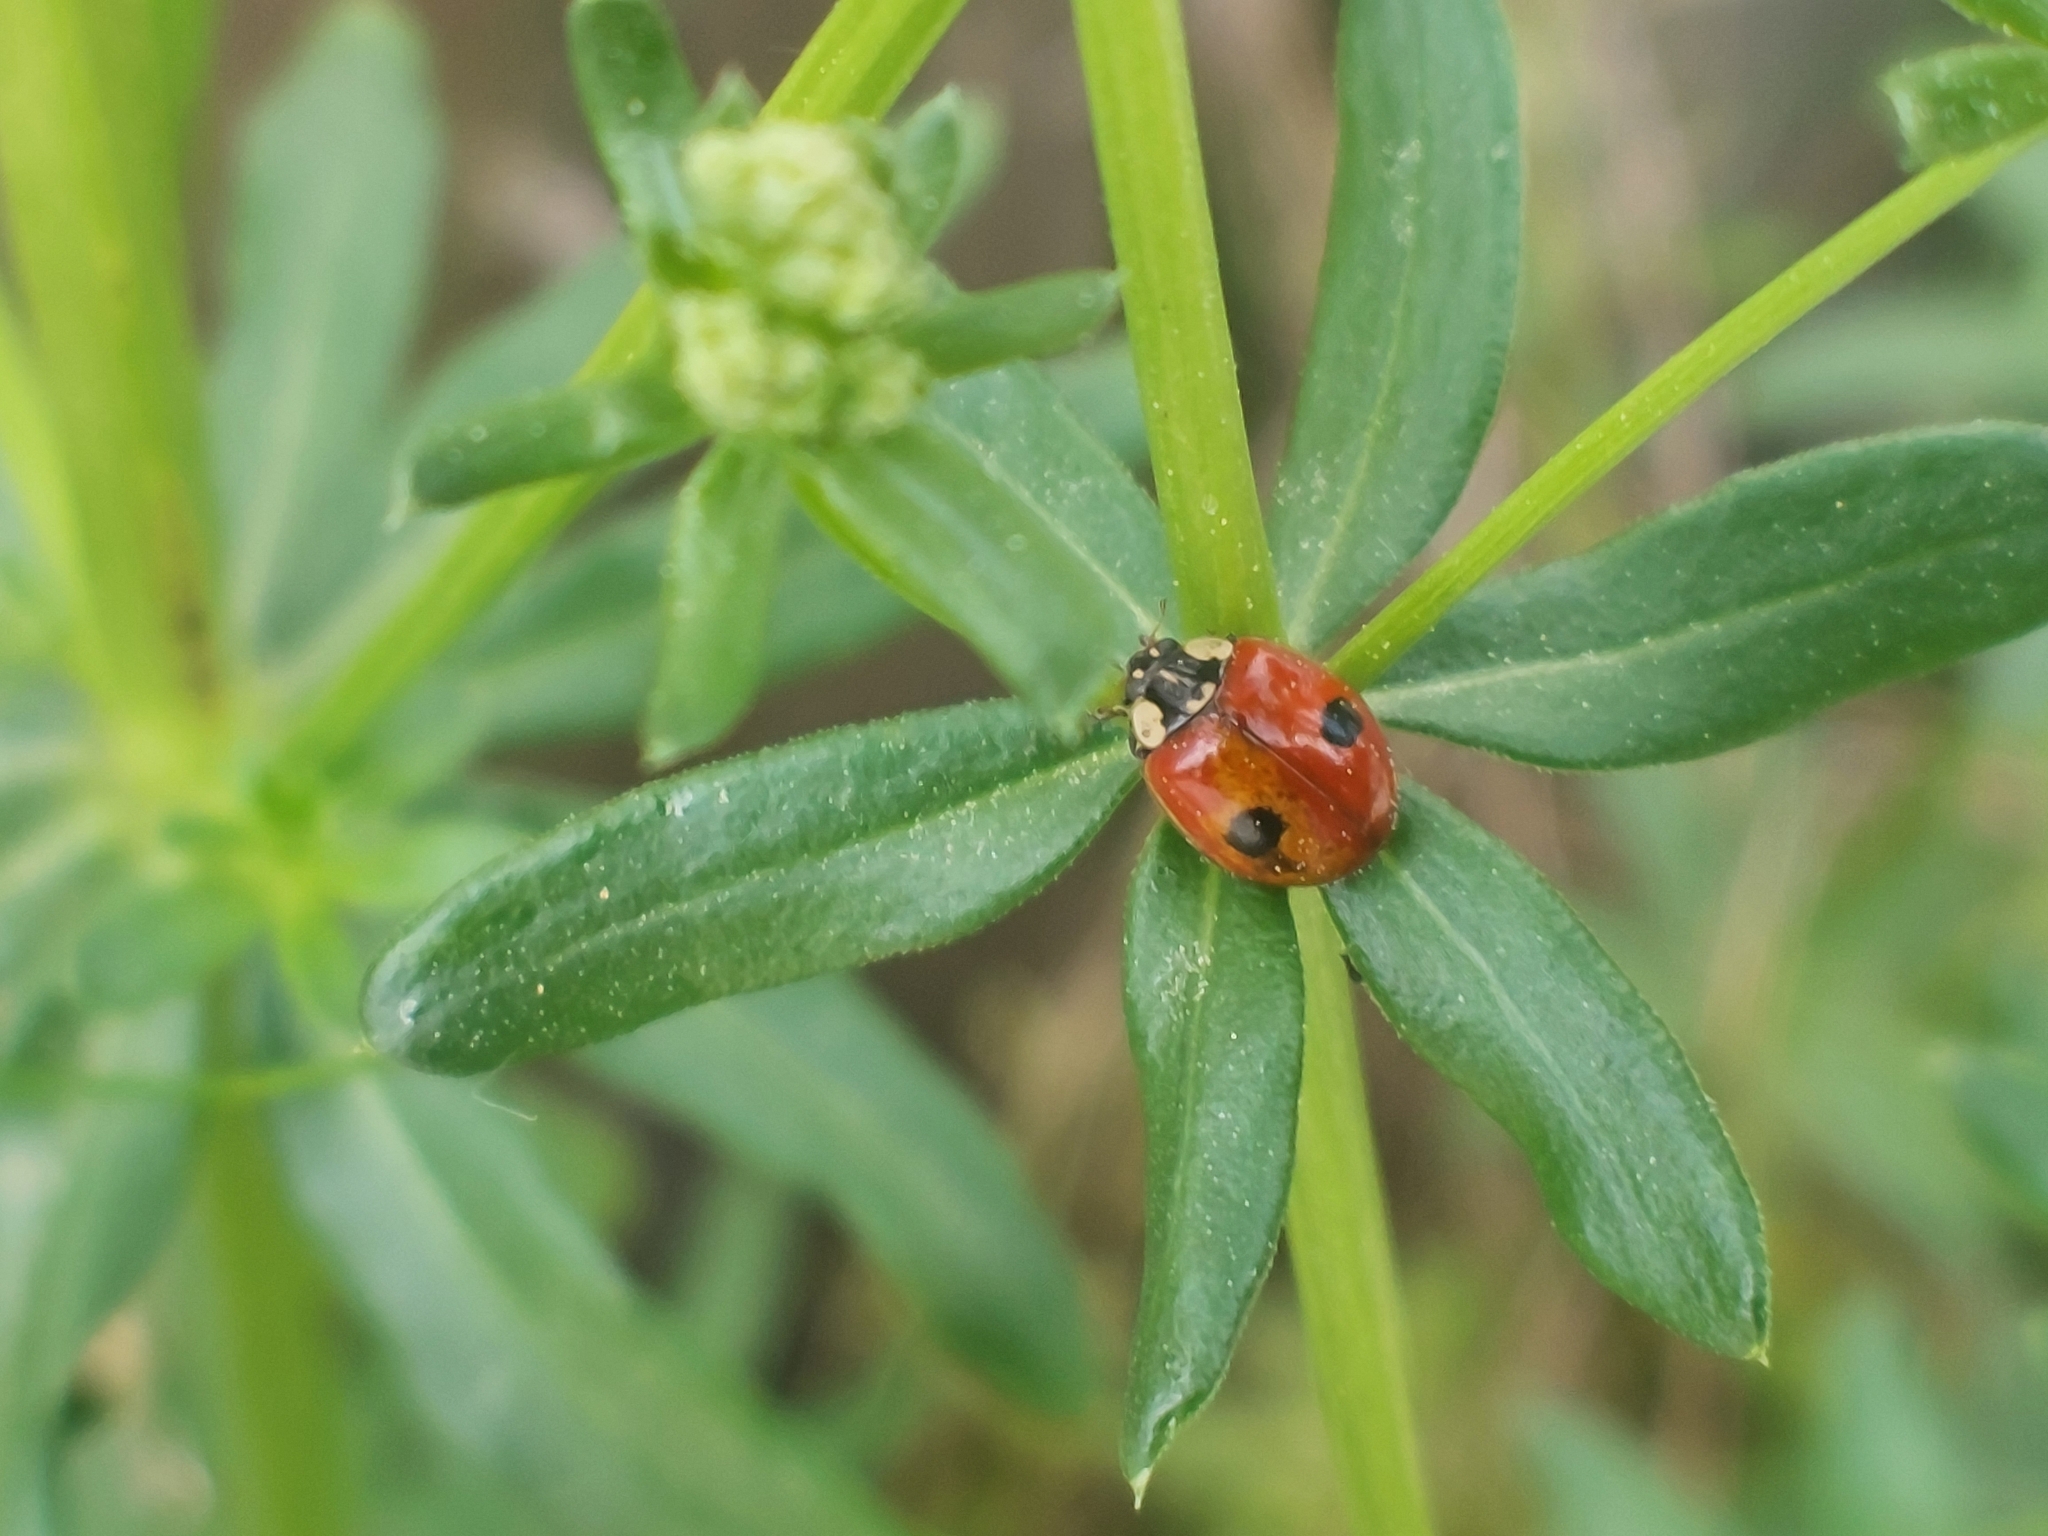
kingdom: Animalia
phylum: Arthropoda
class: Insecta
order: Coleoptera
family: Coccinellidae
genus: Adalia
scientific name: Adalia bipunctata
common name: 2-spot ladybird
